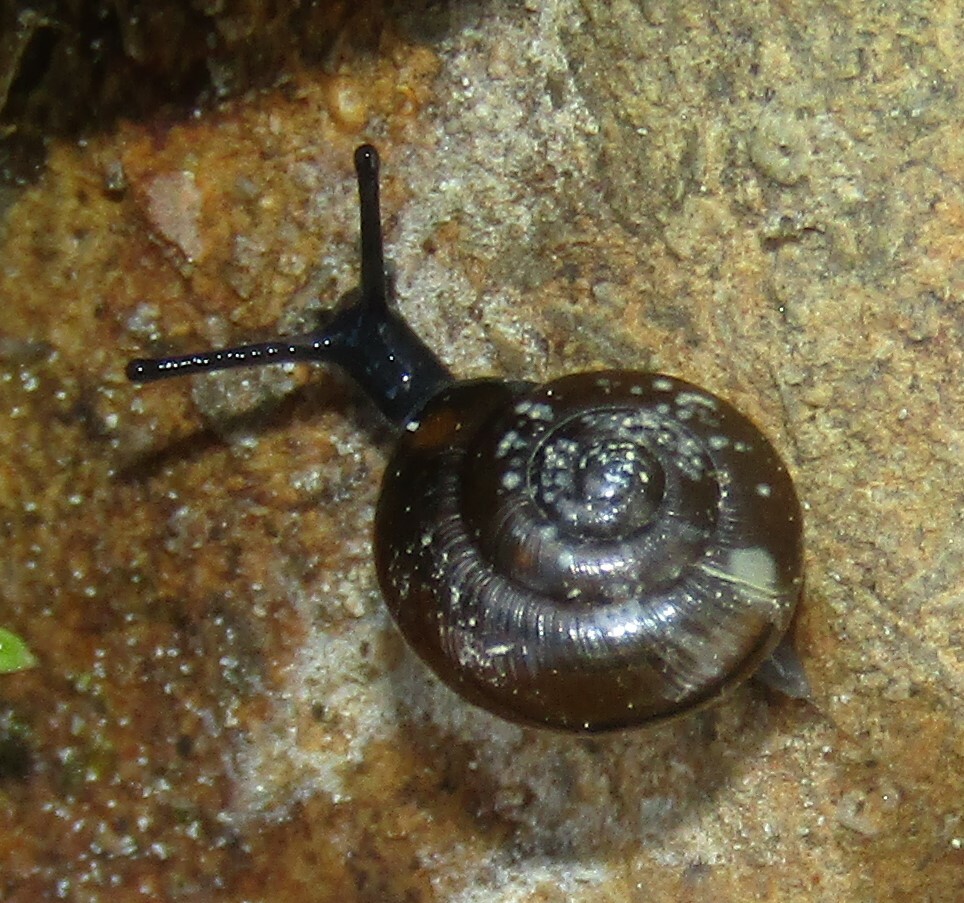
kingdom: Animalia
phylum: Mollusca
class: Gastropoda
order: Stylommatophora
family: Gastrodontidae
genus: Zonitoides
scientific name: Zonitoides nitidus
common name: Shiny glass snail
